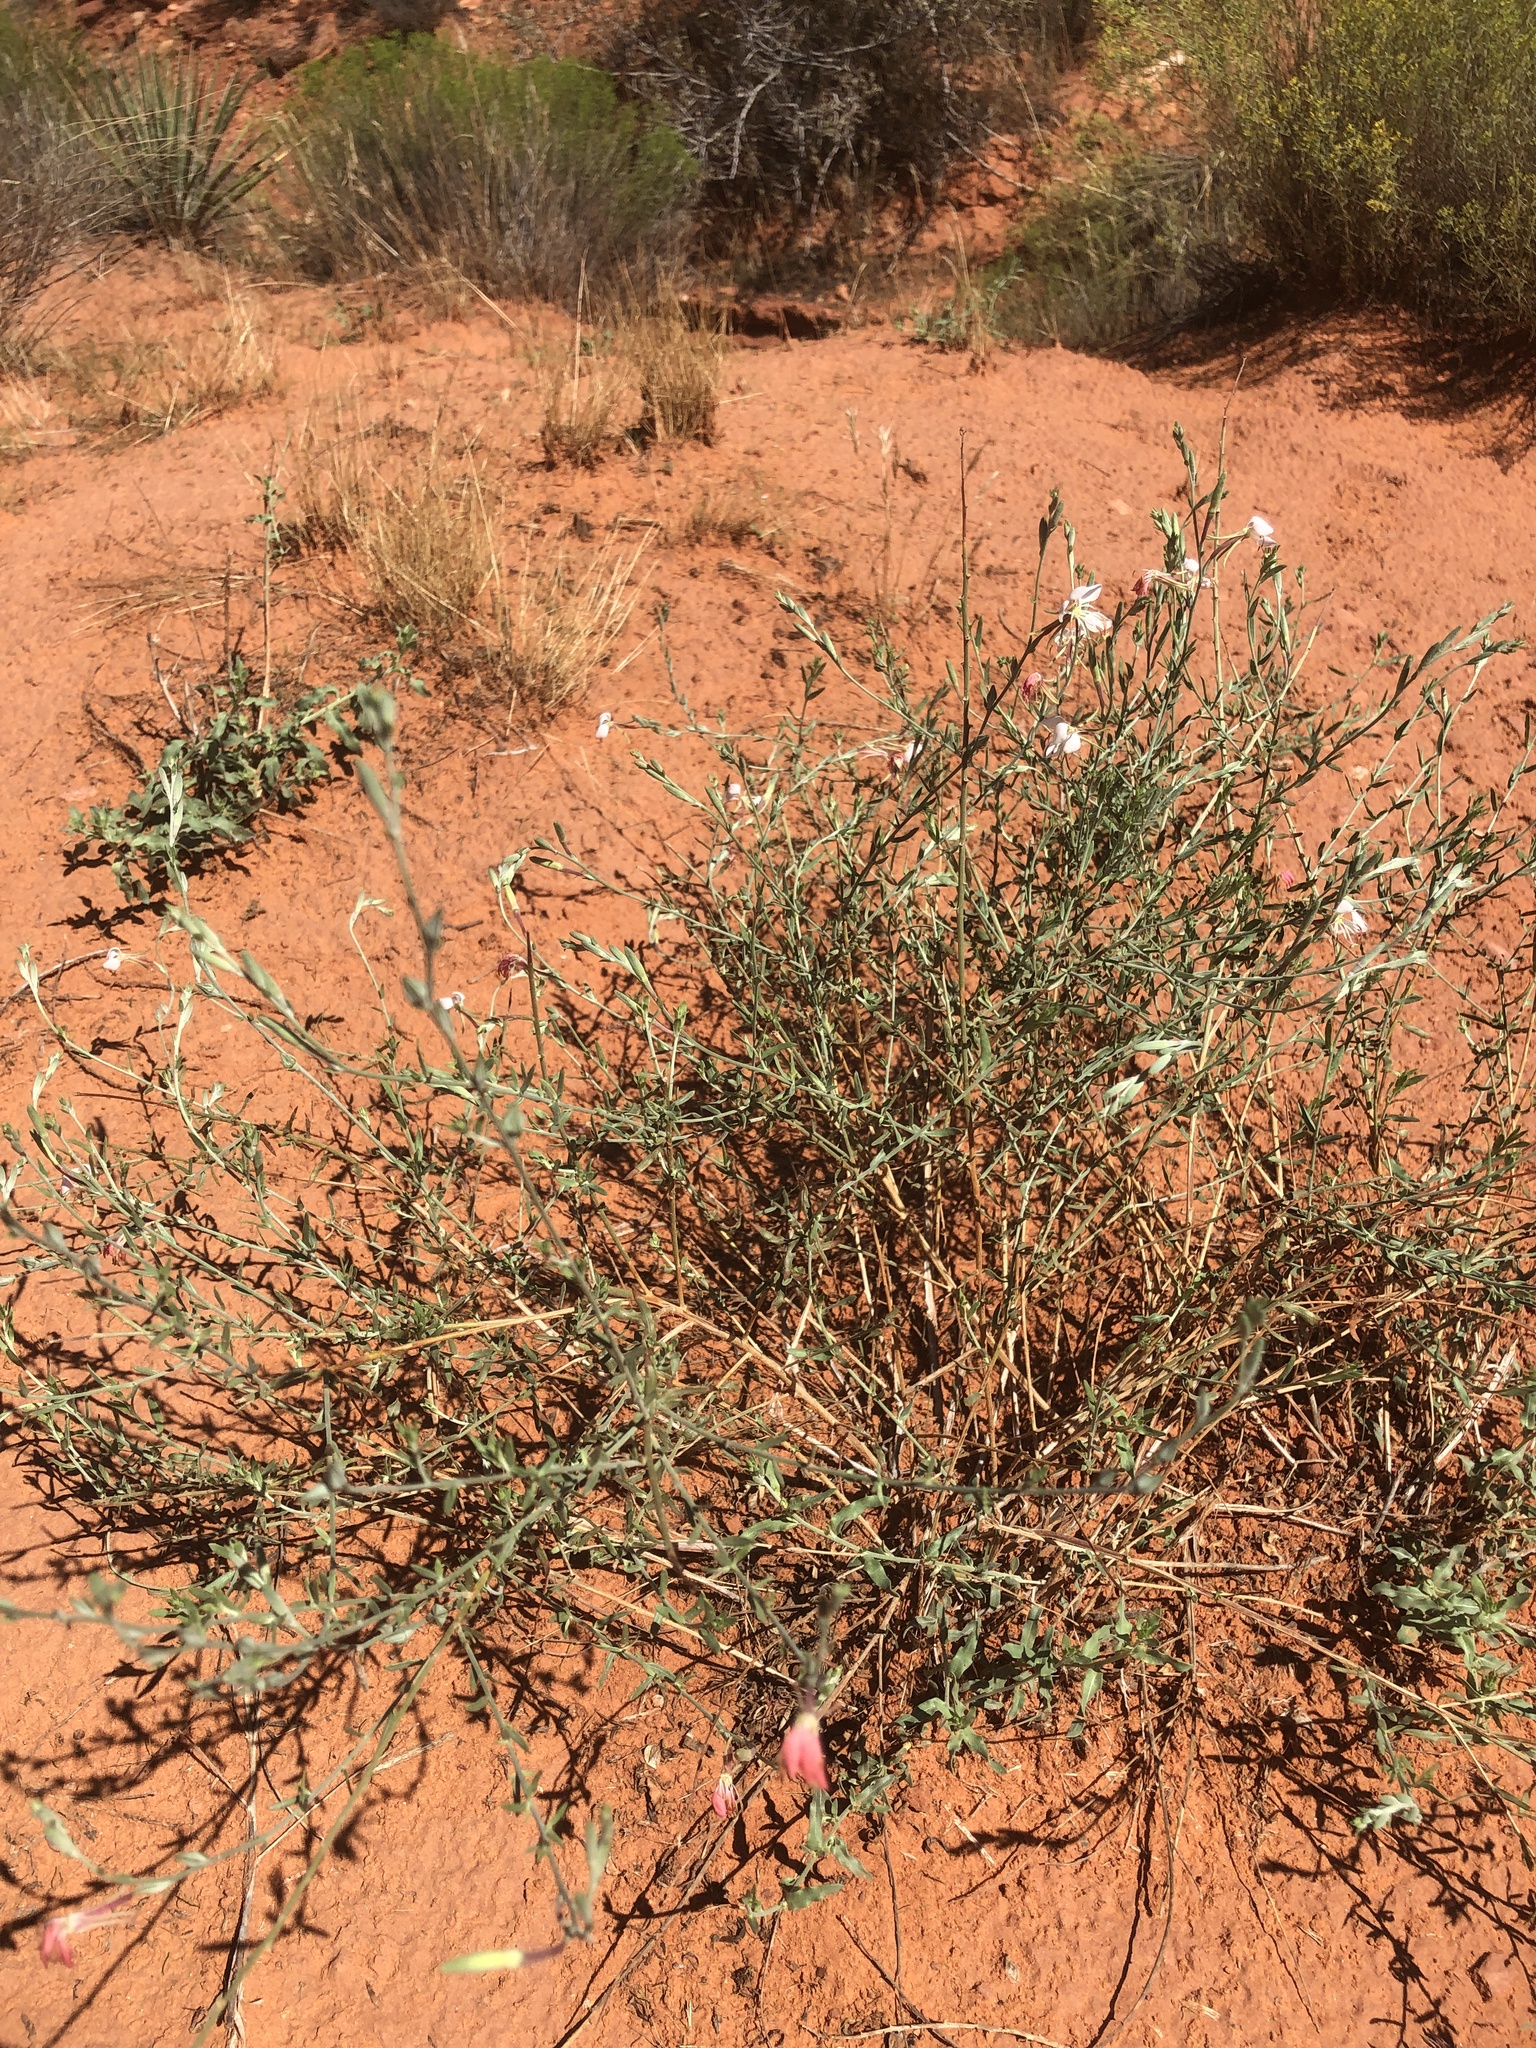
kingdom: Plantae
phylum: Tracheophyta
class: Magnoliopsida
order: Myrtales
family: Onagraceae
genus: Oenothera
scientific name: Oenothera suffrutescens
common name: Scarlet beeblossom
